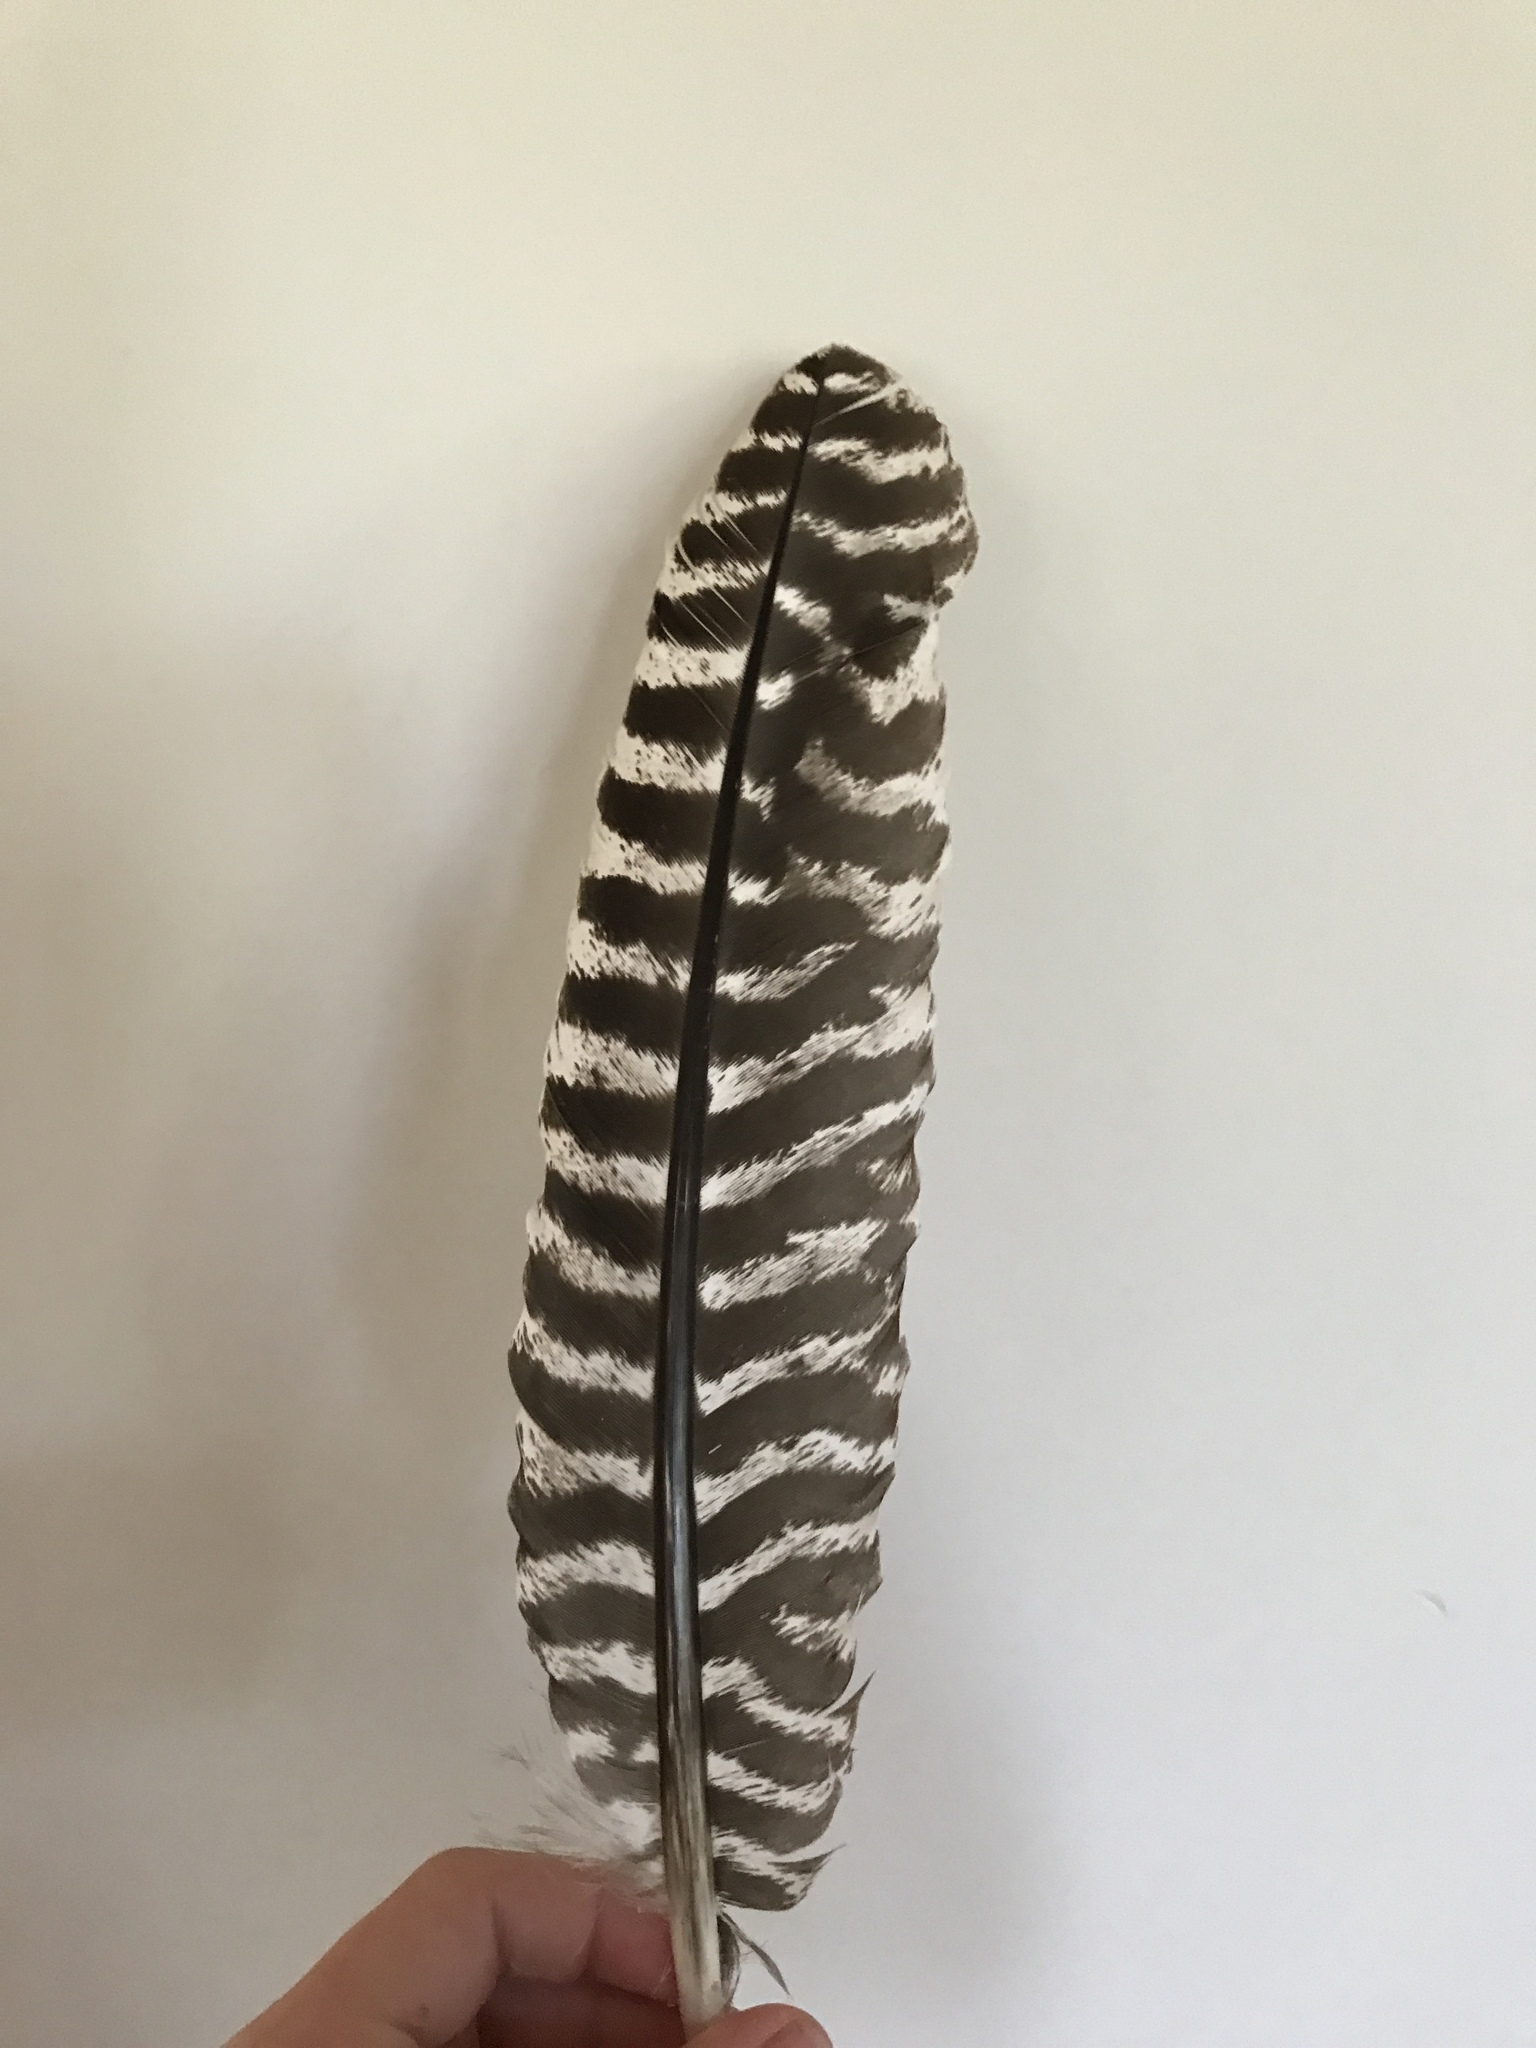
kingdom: Animalia
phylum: Chordata
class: Aves
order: Galliformes
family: Phasianidae
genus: Meleagris
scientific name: Meleagris gallopavo
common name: Wild turkey
